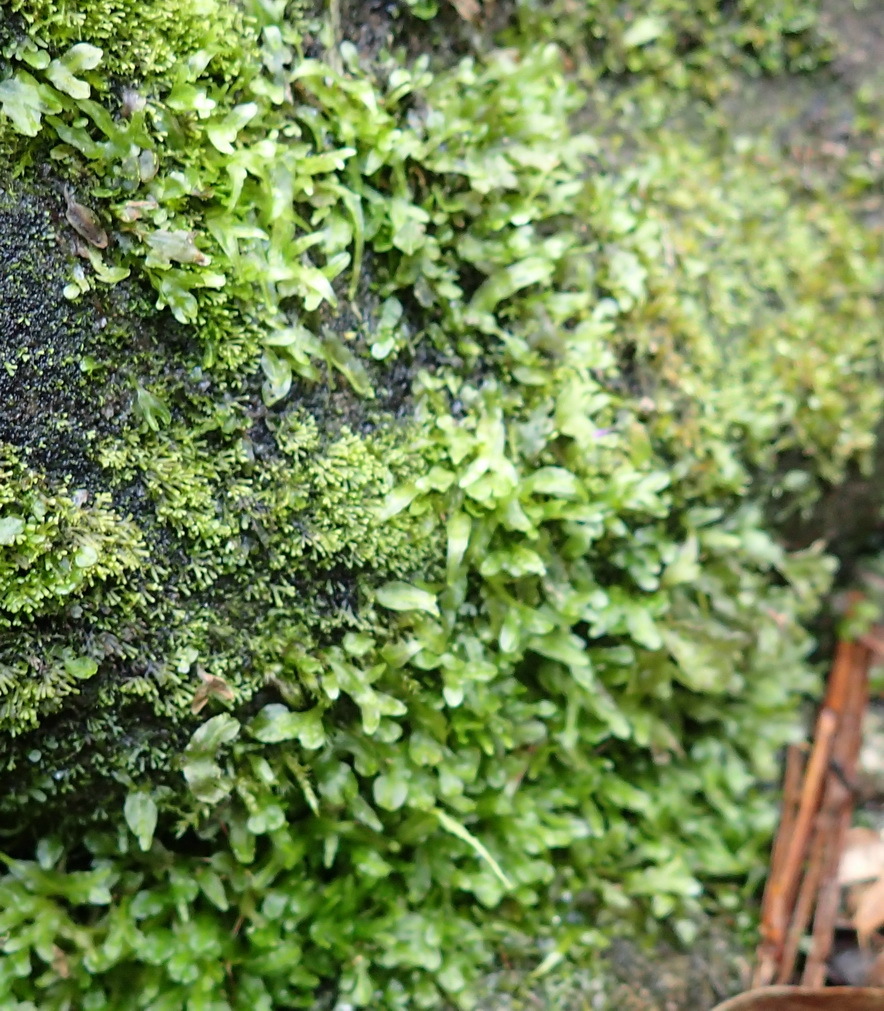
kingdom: Plantae
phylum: Marchantiophyta
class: Jungermanniopsida
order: Pallaviciniales
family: Pallaviciniaceae
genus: Symphyogyna
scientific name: Symphyogyna podophylla
